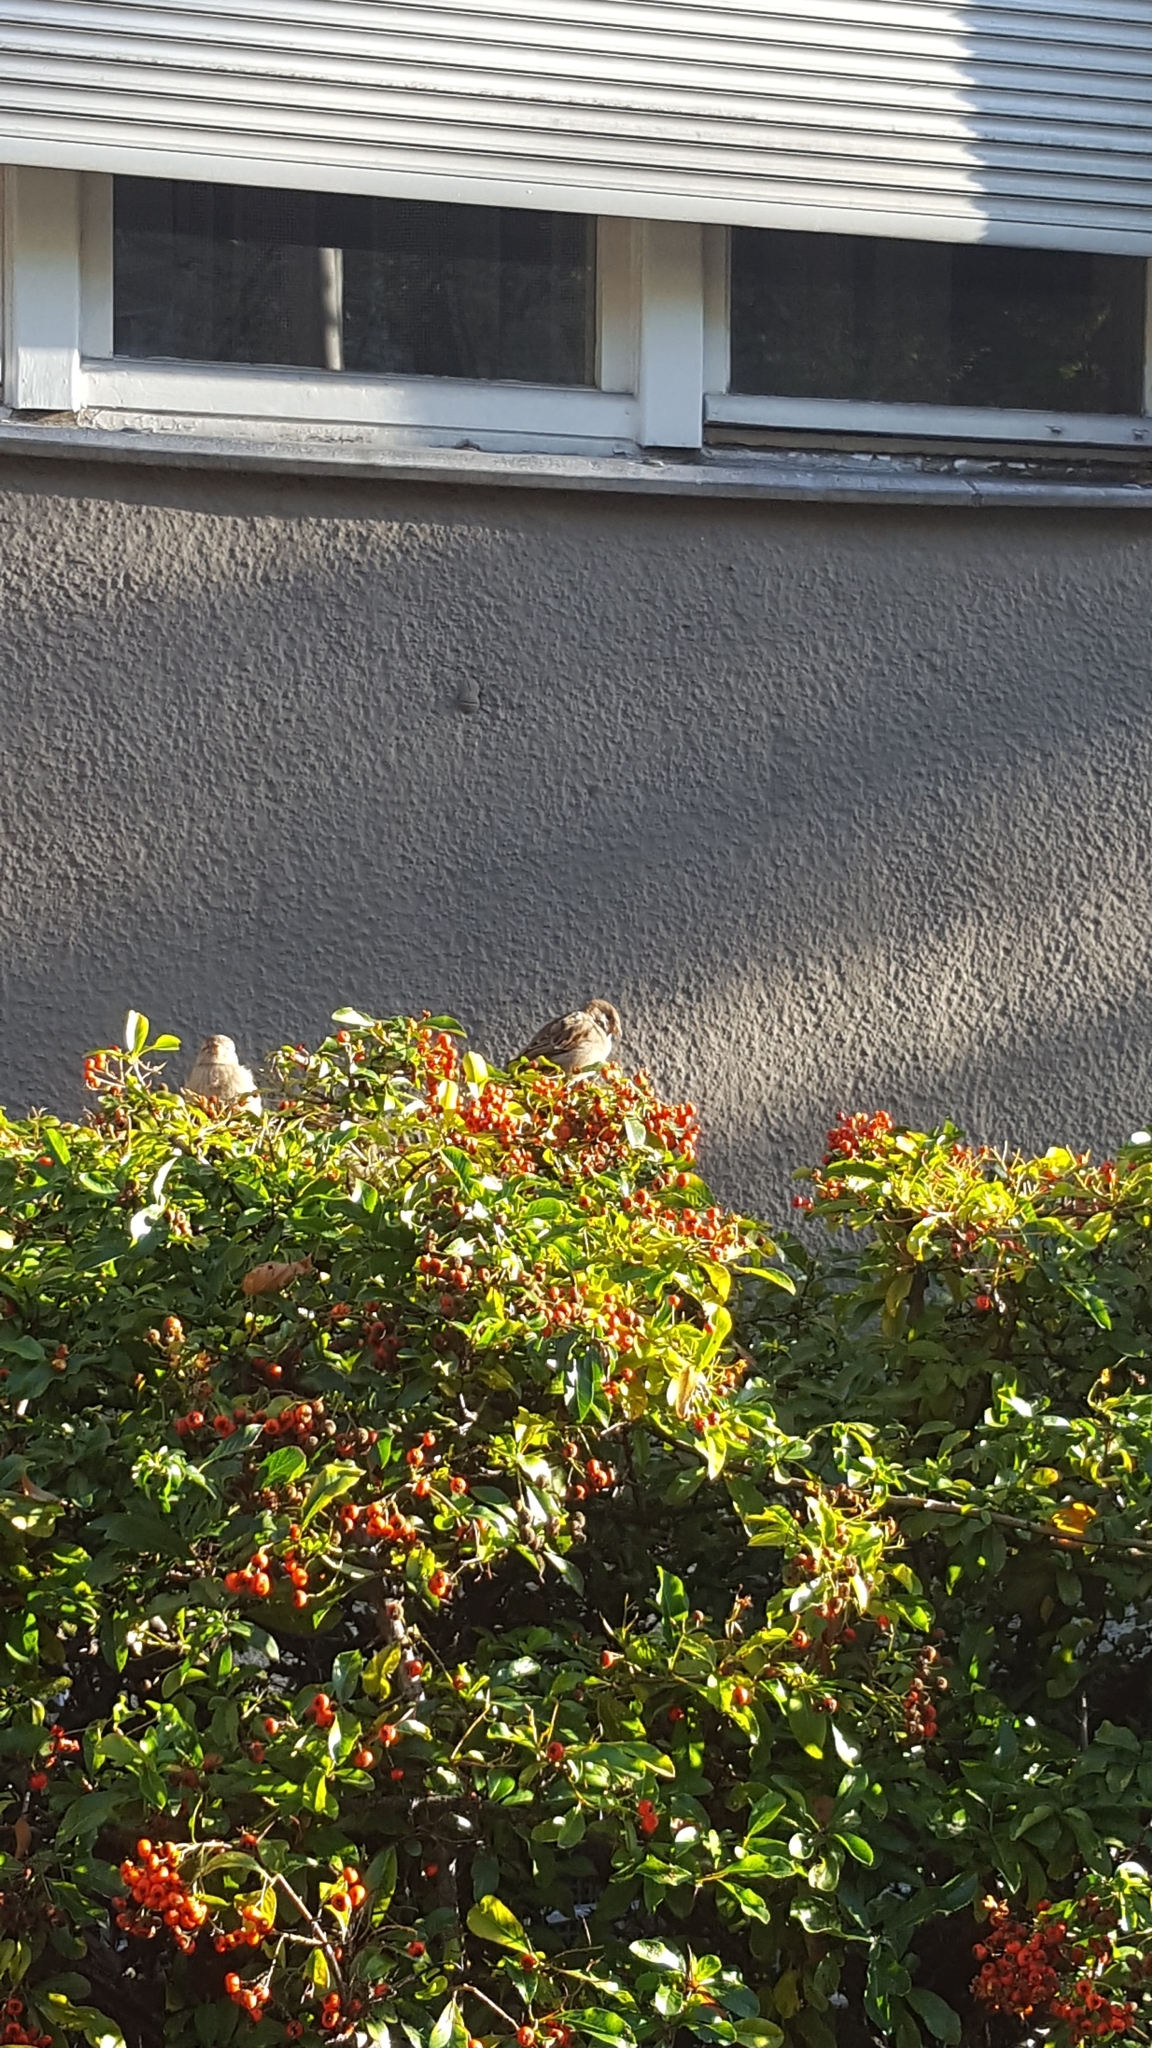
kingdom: Animalia
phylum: Chordata
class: Aves
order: Passeriformes
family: Passeridae
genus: Passer
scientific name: Passer domesticus
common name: House sparrow
